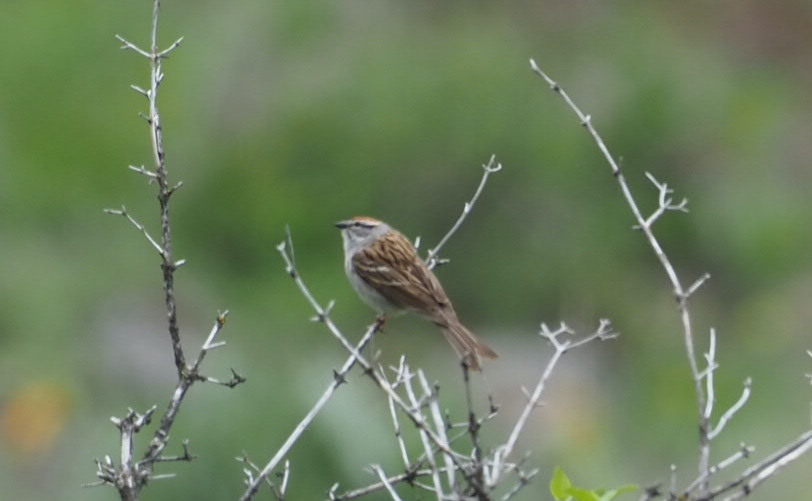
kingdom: Animalia
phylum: Chordata
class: Aves
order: Passeriformes
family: Passerellidae
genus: Spizella
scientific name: Spizella passerina
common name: Chipping sparrow
